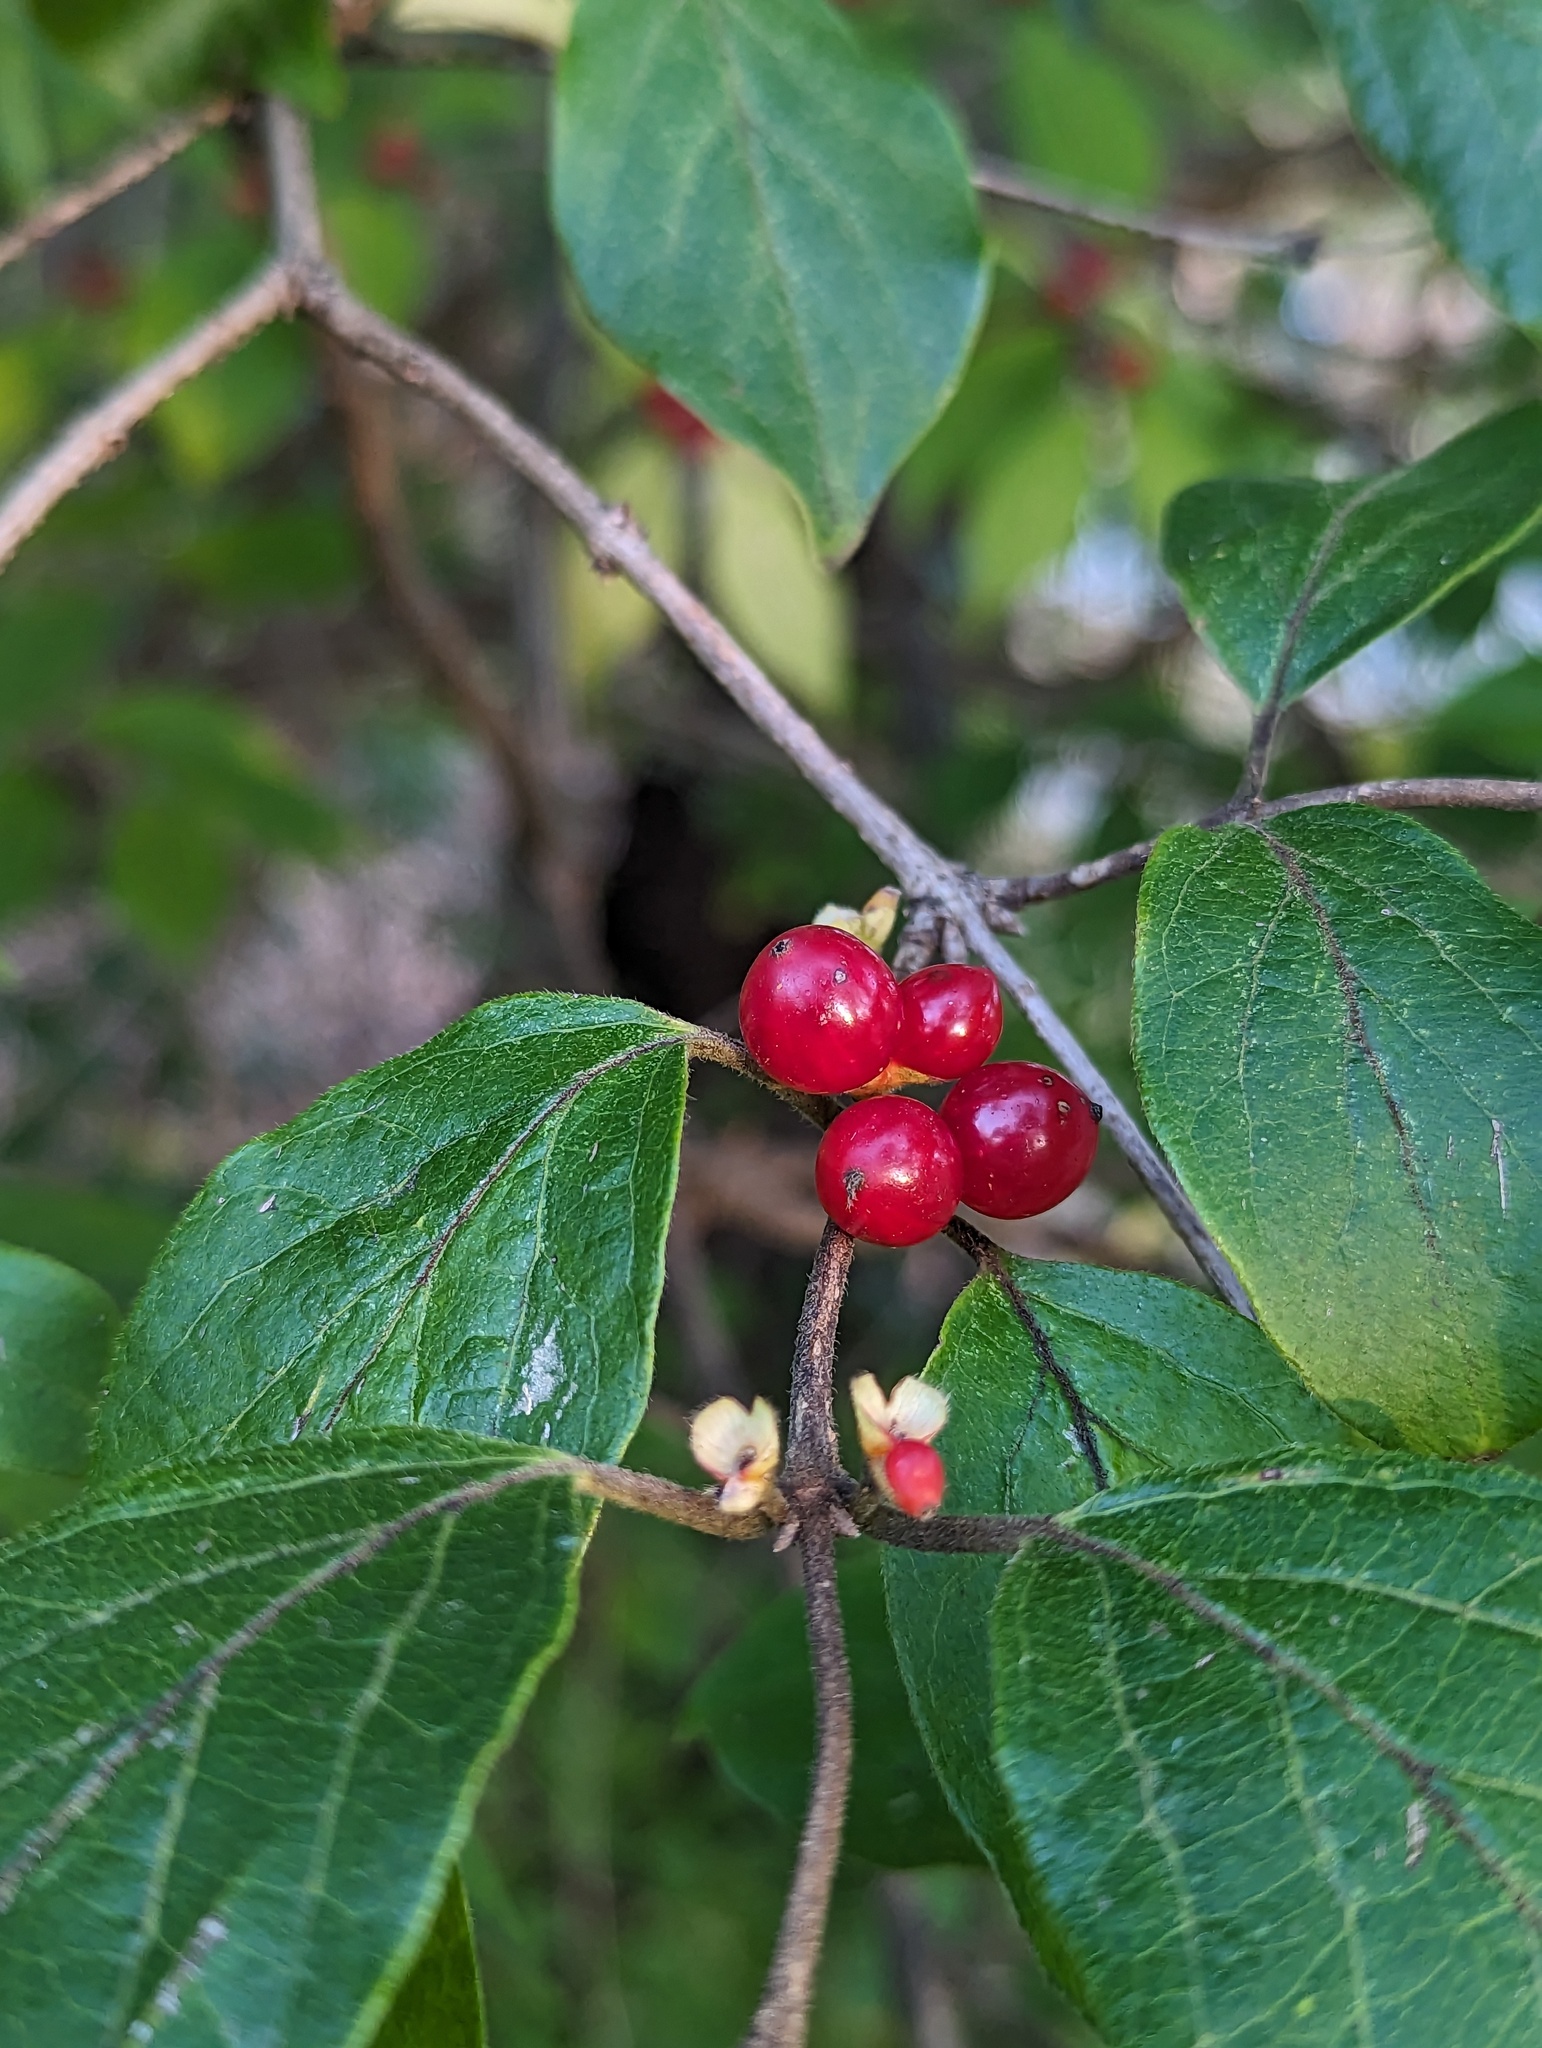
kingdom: Plantae
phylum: Tracheophyta
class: Magnoliopsida
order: Dipsacales
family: Caprifoliaceae
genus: Lonicera
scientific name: Lonicera maackii
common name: Amur honeysuckle
